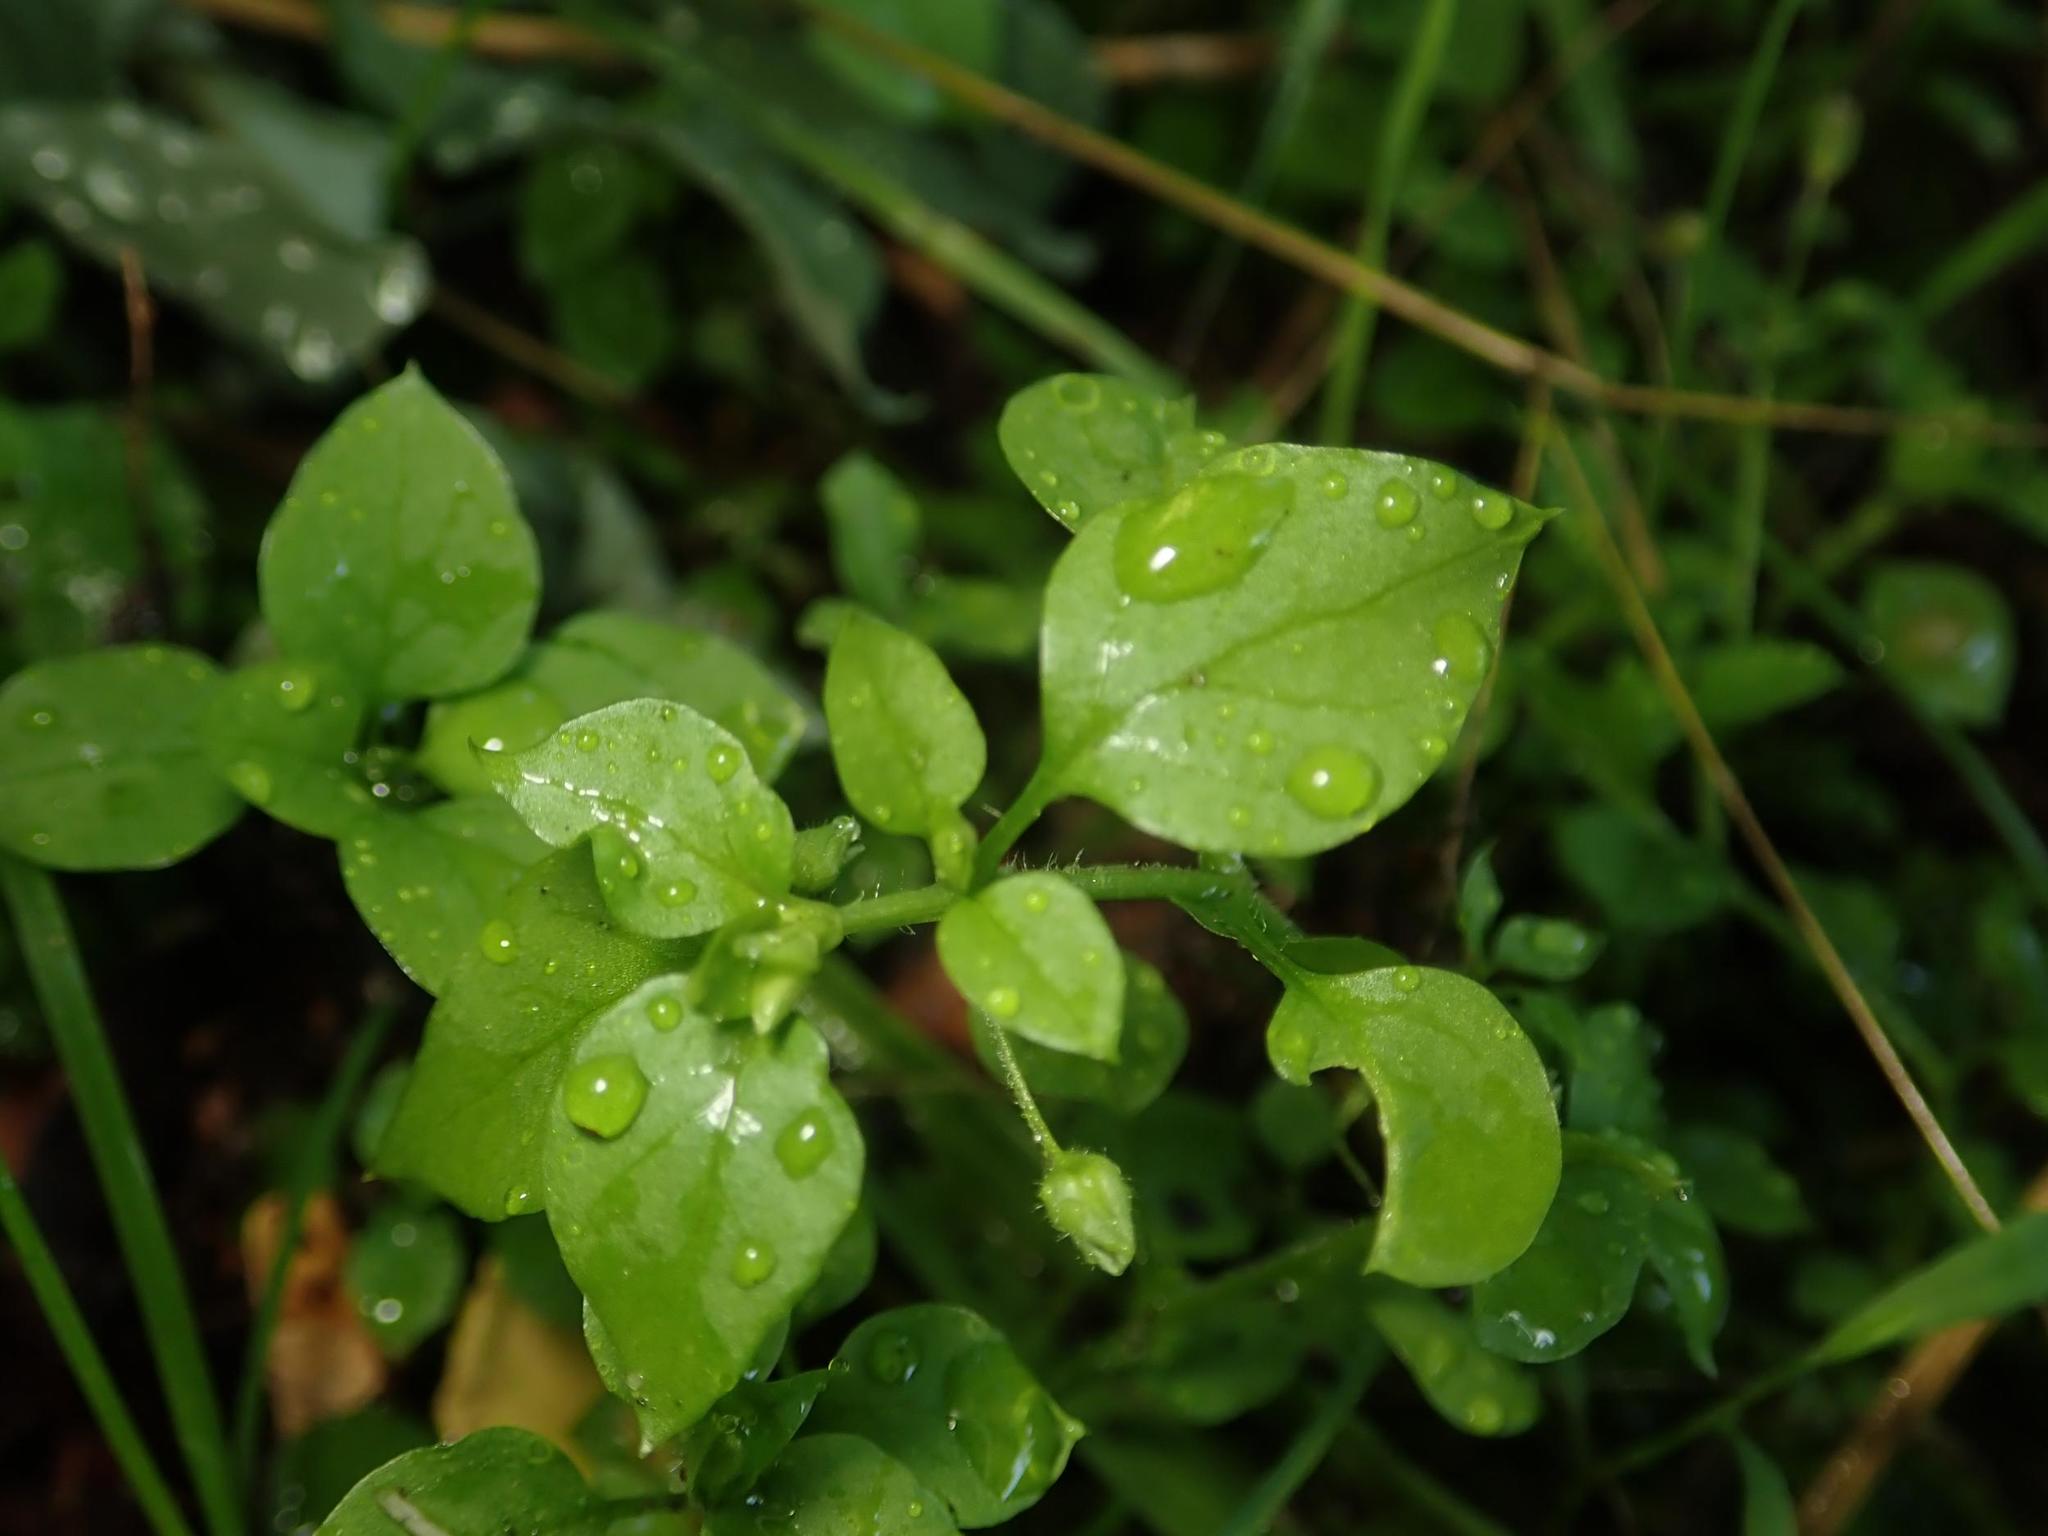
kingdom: Plantae
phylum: Tracheophyta
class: Magnoliopsida
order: Caryophyllales
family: Caryophyllaceae
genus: Stellaria
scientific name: Stellaria media
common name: Common chickweed
